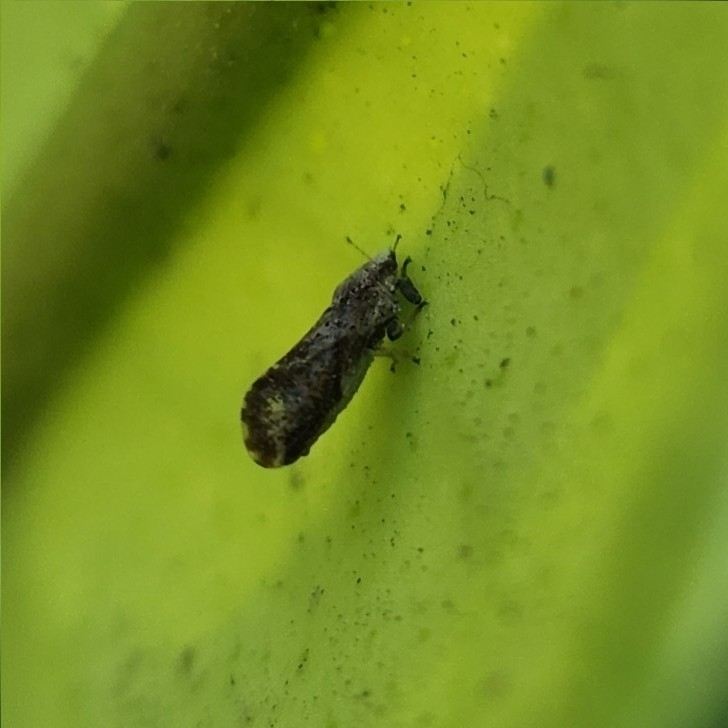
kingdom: Animalia
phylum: Arthropoda
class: Insecta
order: Hemiptera
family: Liviidae
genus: Diaphorina
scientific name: Diaphorina citri
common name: Asian citrus psyllid
